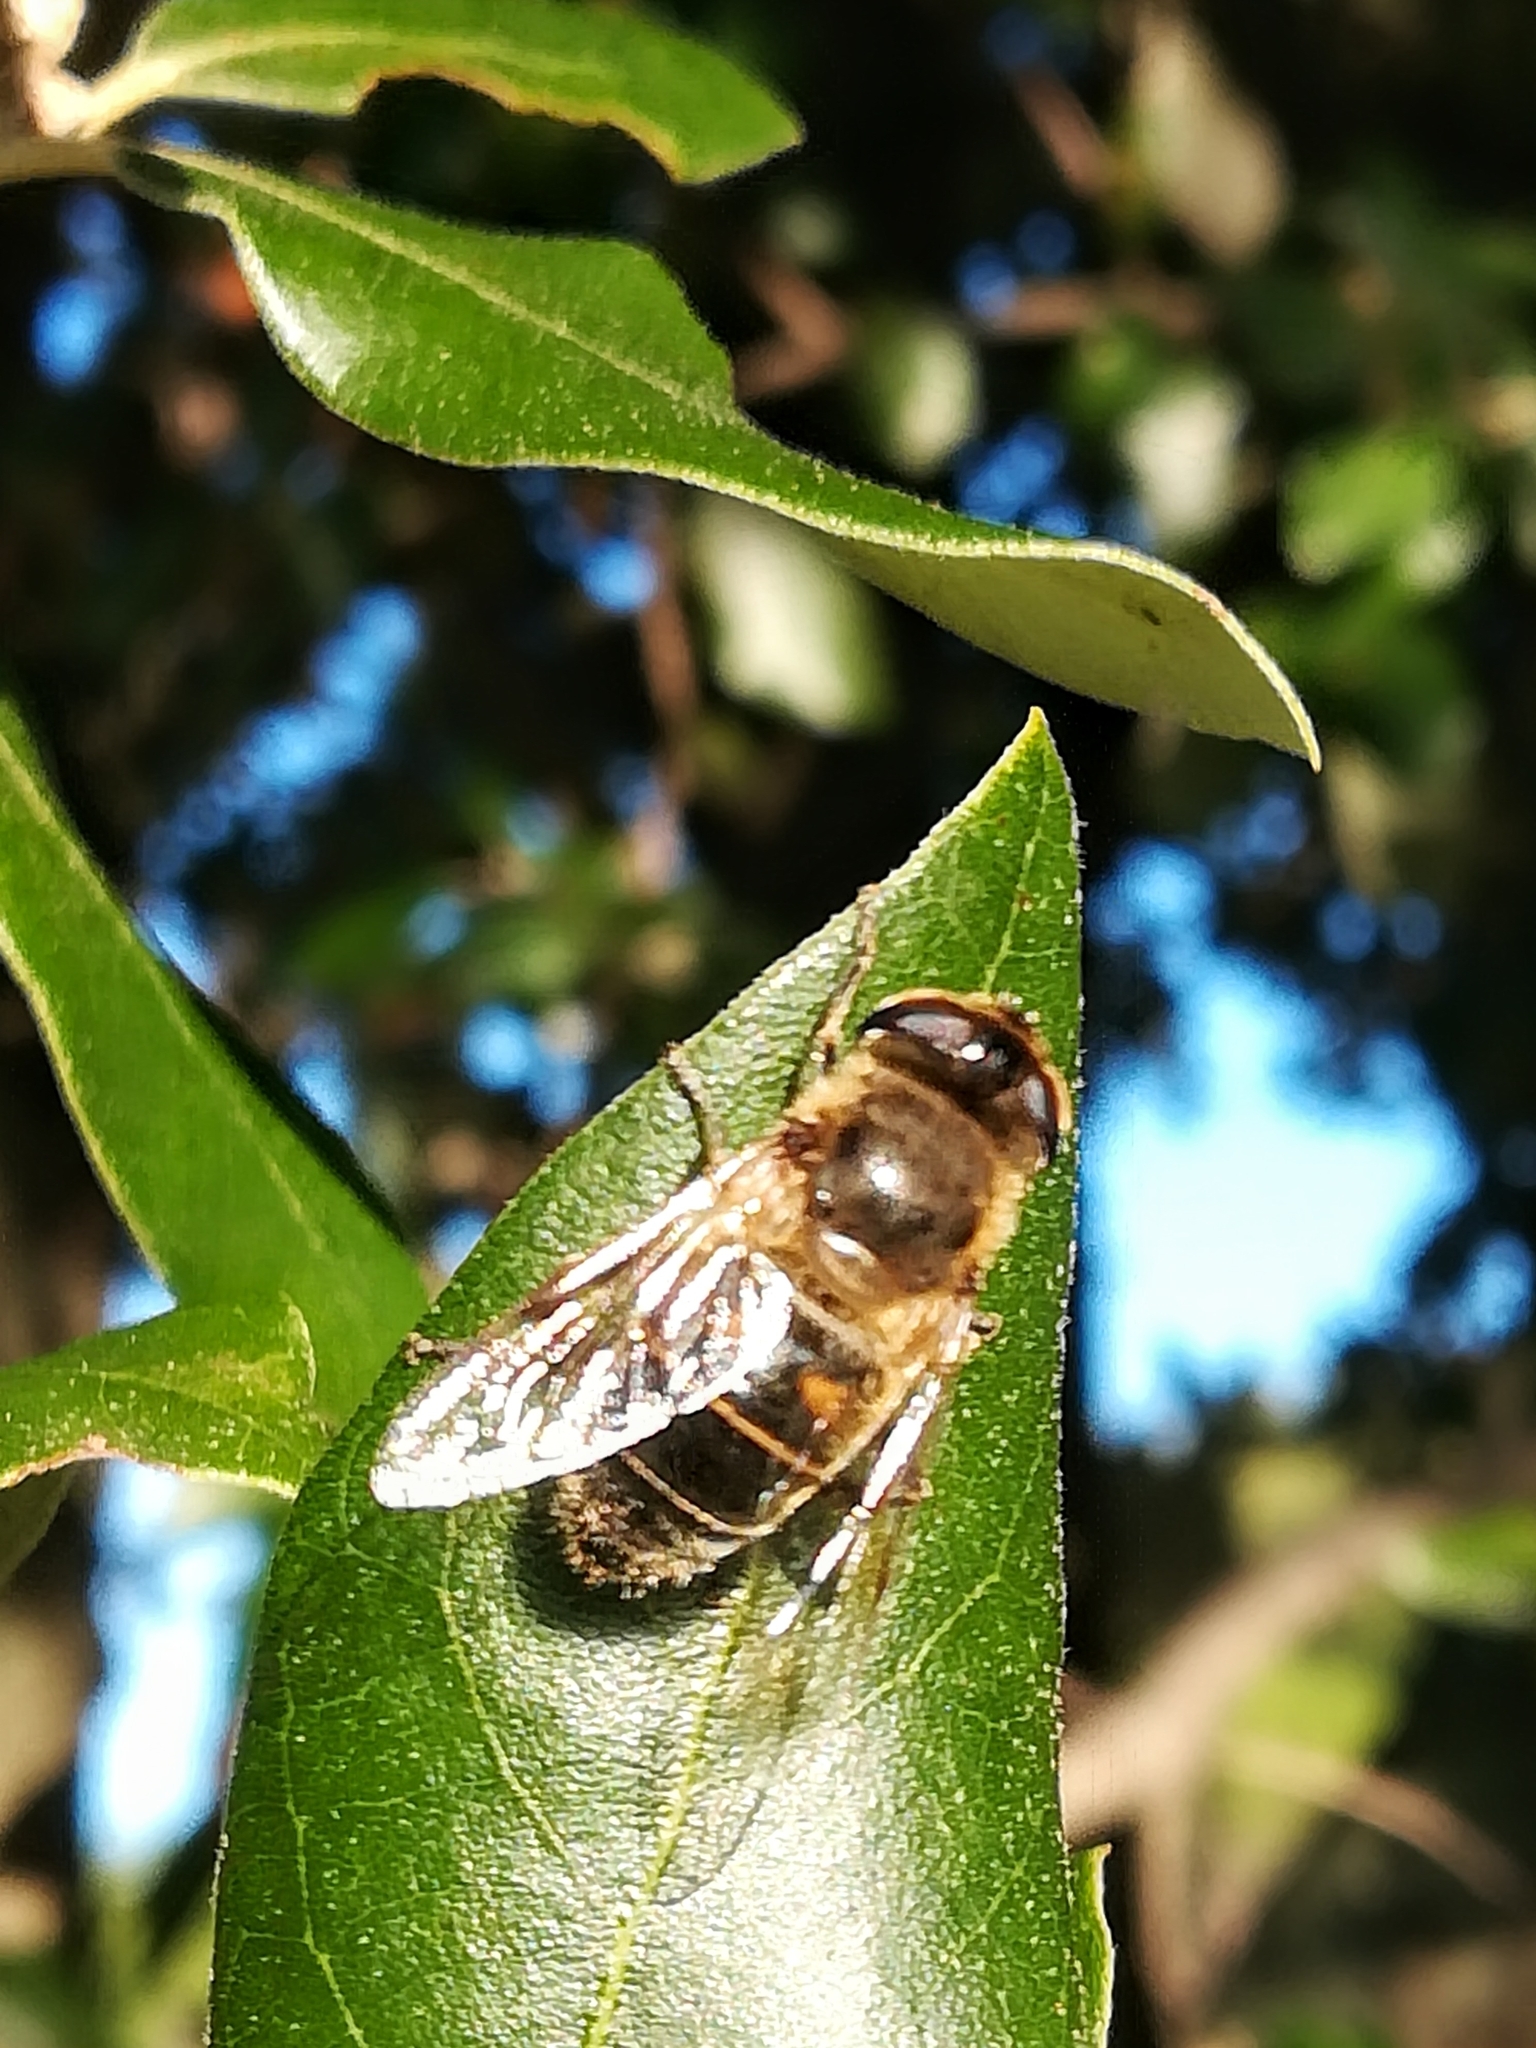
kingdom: Animalia
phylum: Arthropoda
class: Insecta
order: Diptera
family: Syrphidae
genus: Eristalis
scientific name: Eristalis tenax
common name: Drone fly
